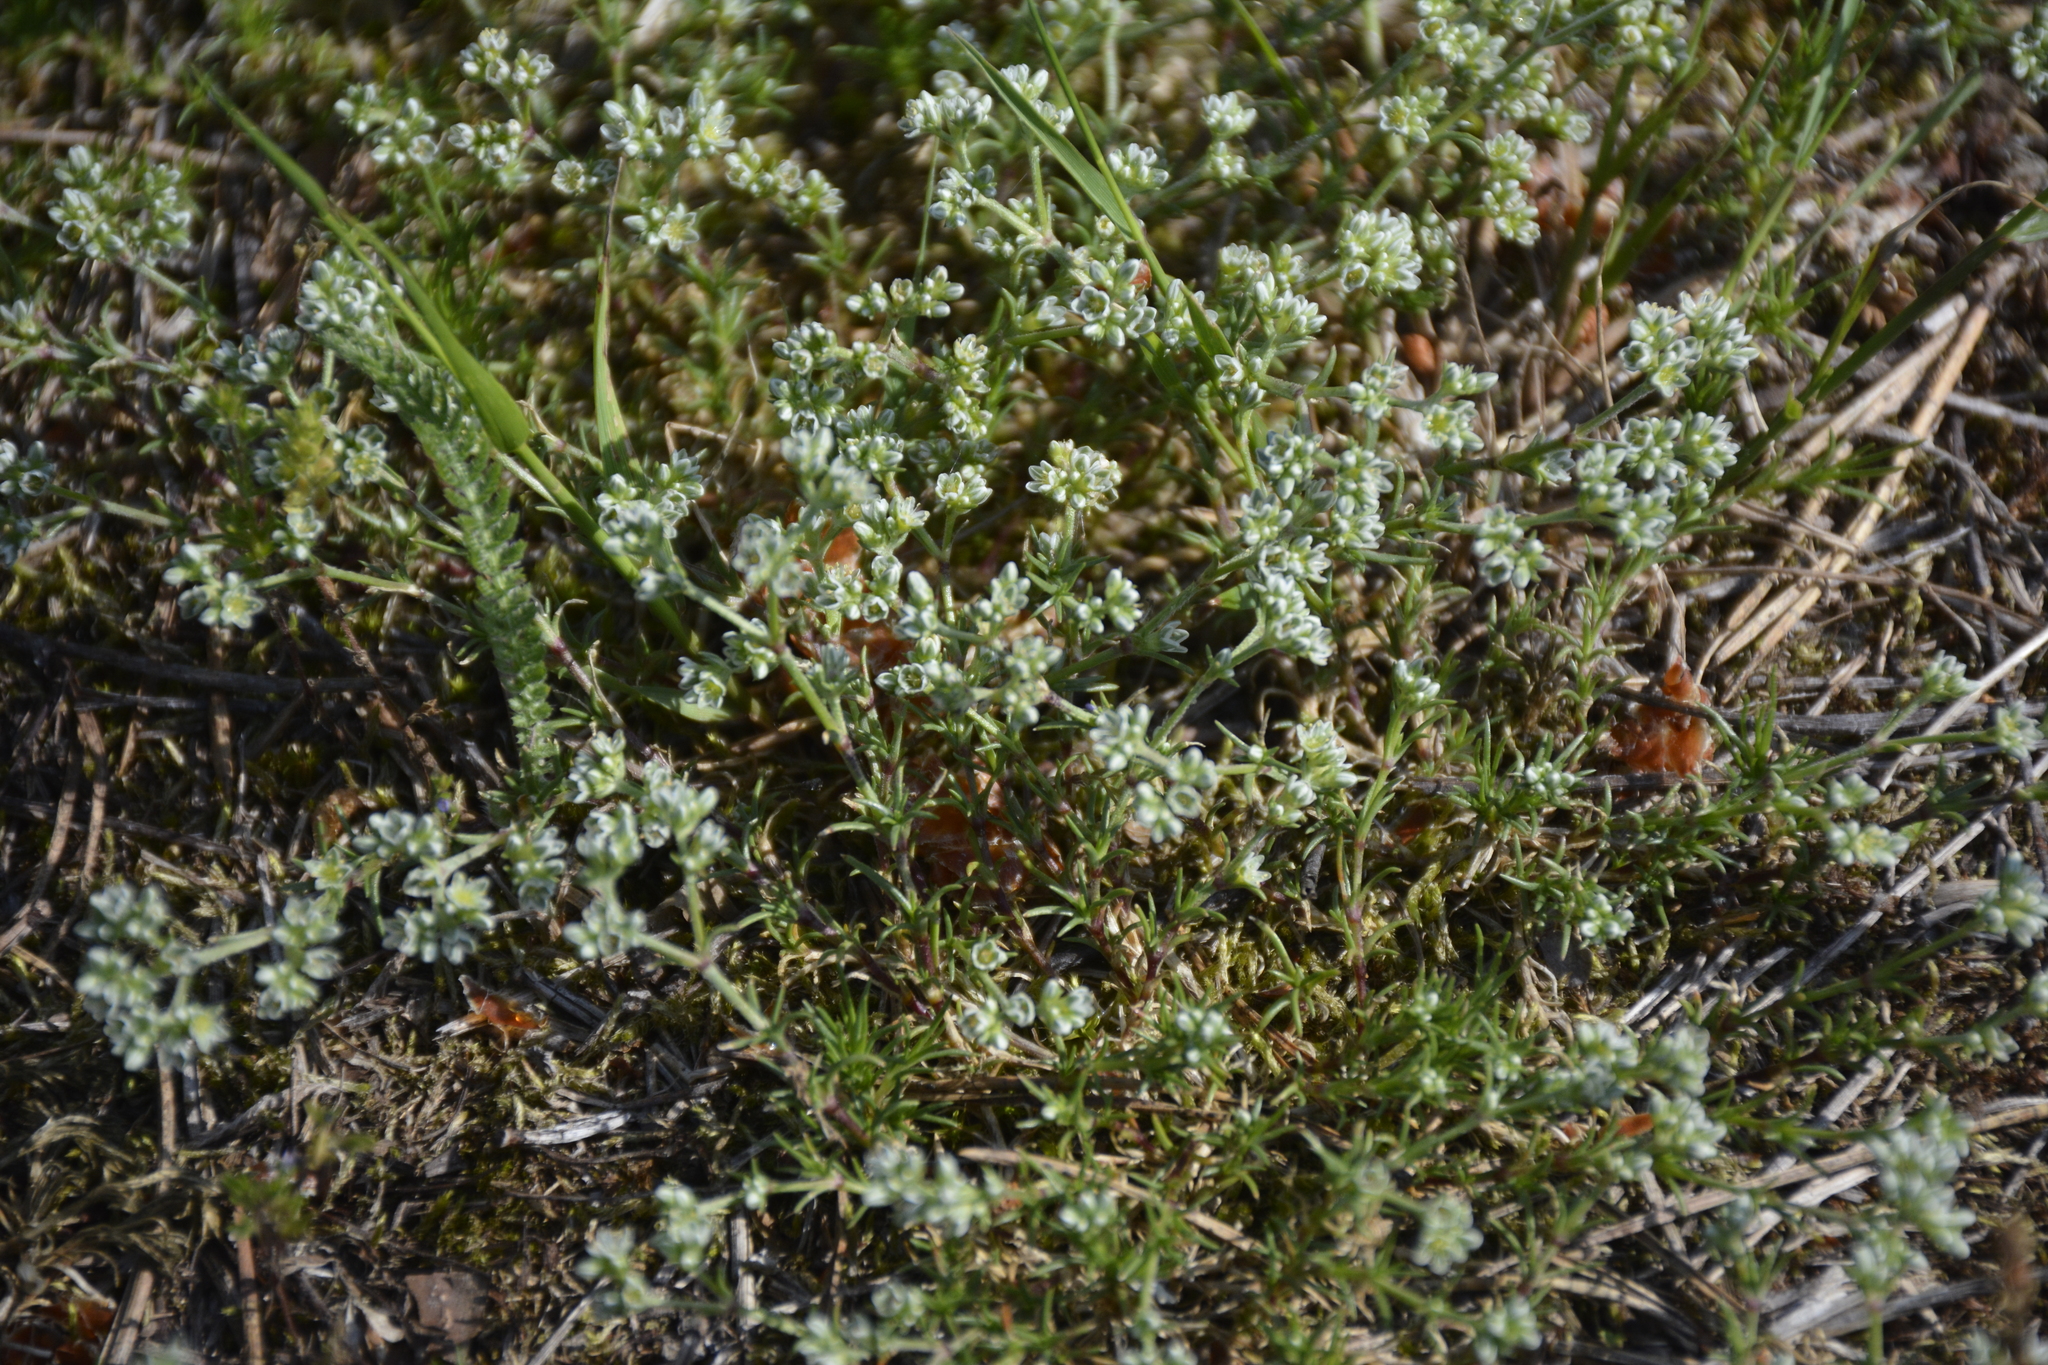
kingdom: Plantae
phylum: Tracheophyta
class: Magnoliopsida
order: Caryophyllales
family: Caryophyllaceae
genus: Scleranthus
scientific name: Scleranthus perennis
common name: Perennial knawel
